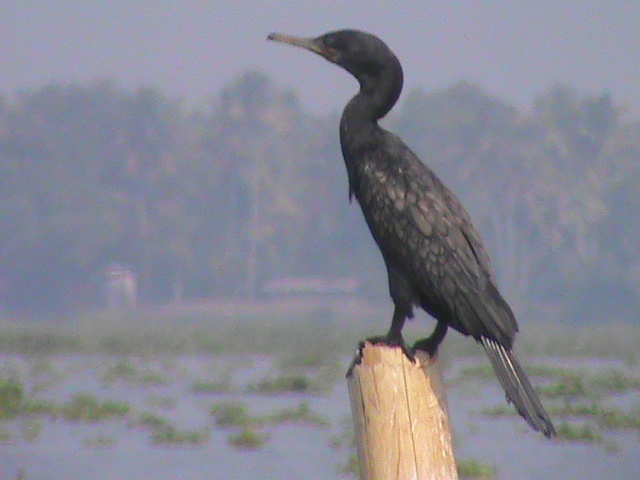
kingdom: Animalia
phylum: Chordata
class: Aves
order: Suliformes
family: Phalacrocoracidae
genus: Phalacrocorax
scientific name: Phalacrocorax fuscicollis
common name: Indian cormorant
